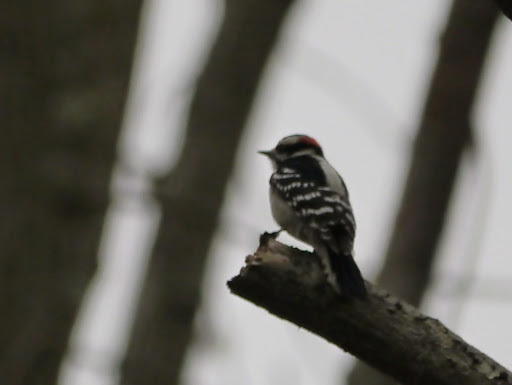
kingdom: Animalia
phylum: Chordata
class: Aves
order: Piciformes
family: Picidae
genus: Dryobates
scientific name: Dryobates pubescens
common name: Downy woodpecker
